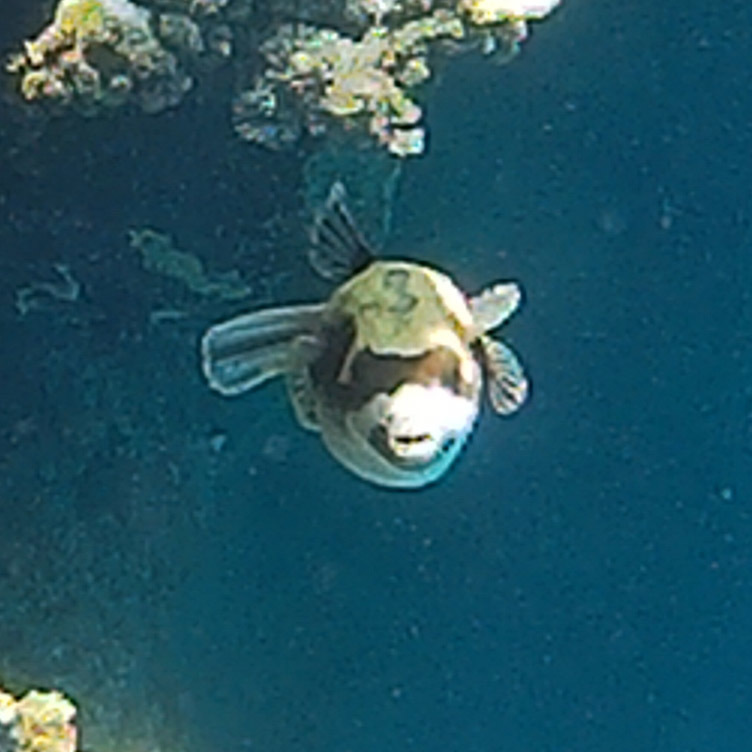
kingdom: Animalia
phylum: Chordata
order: Tetraodontiformes
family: Tetraodontidae
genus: Arothron
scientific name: Arothron diadematus
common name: Masked puffer
